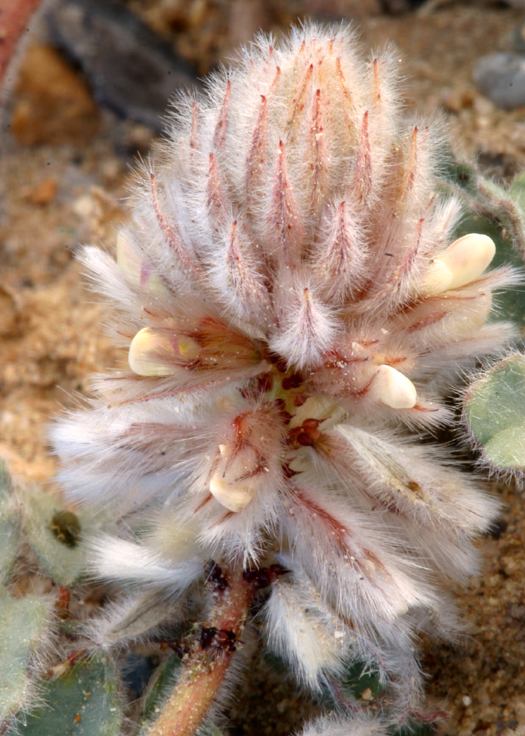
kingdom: Plantae
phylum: Tracheophyta
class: Magnoliopsida
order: Fabales
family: Fabaceae
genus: Dalea
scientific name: Dalea mollissima
